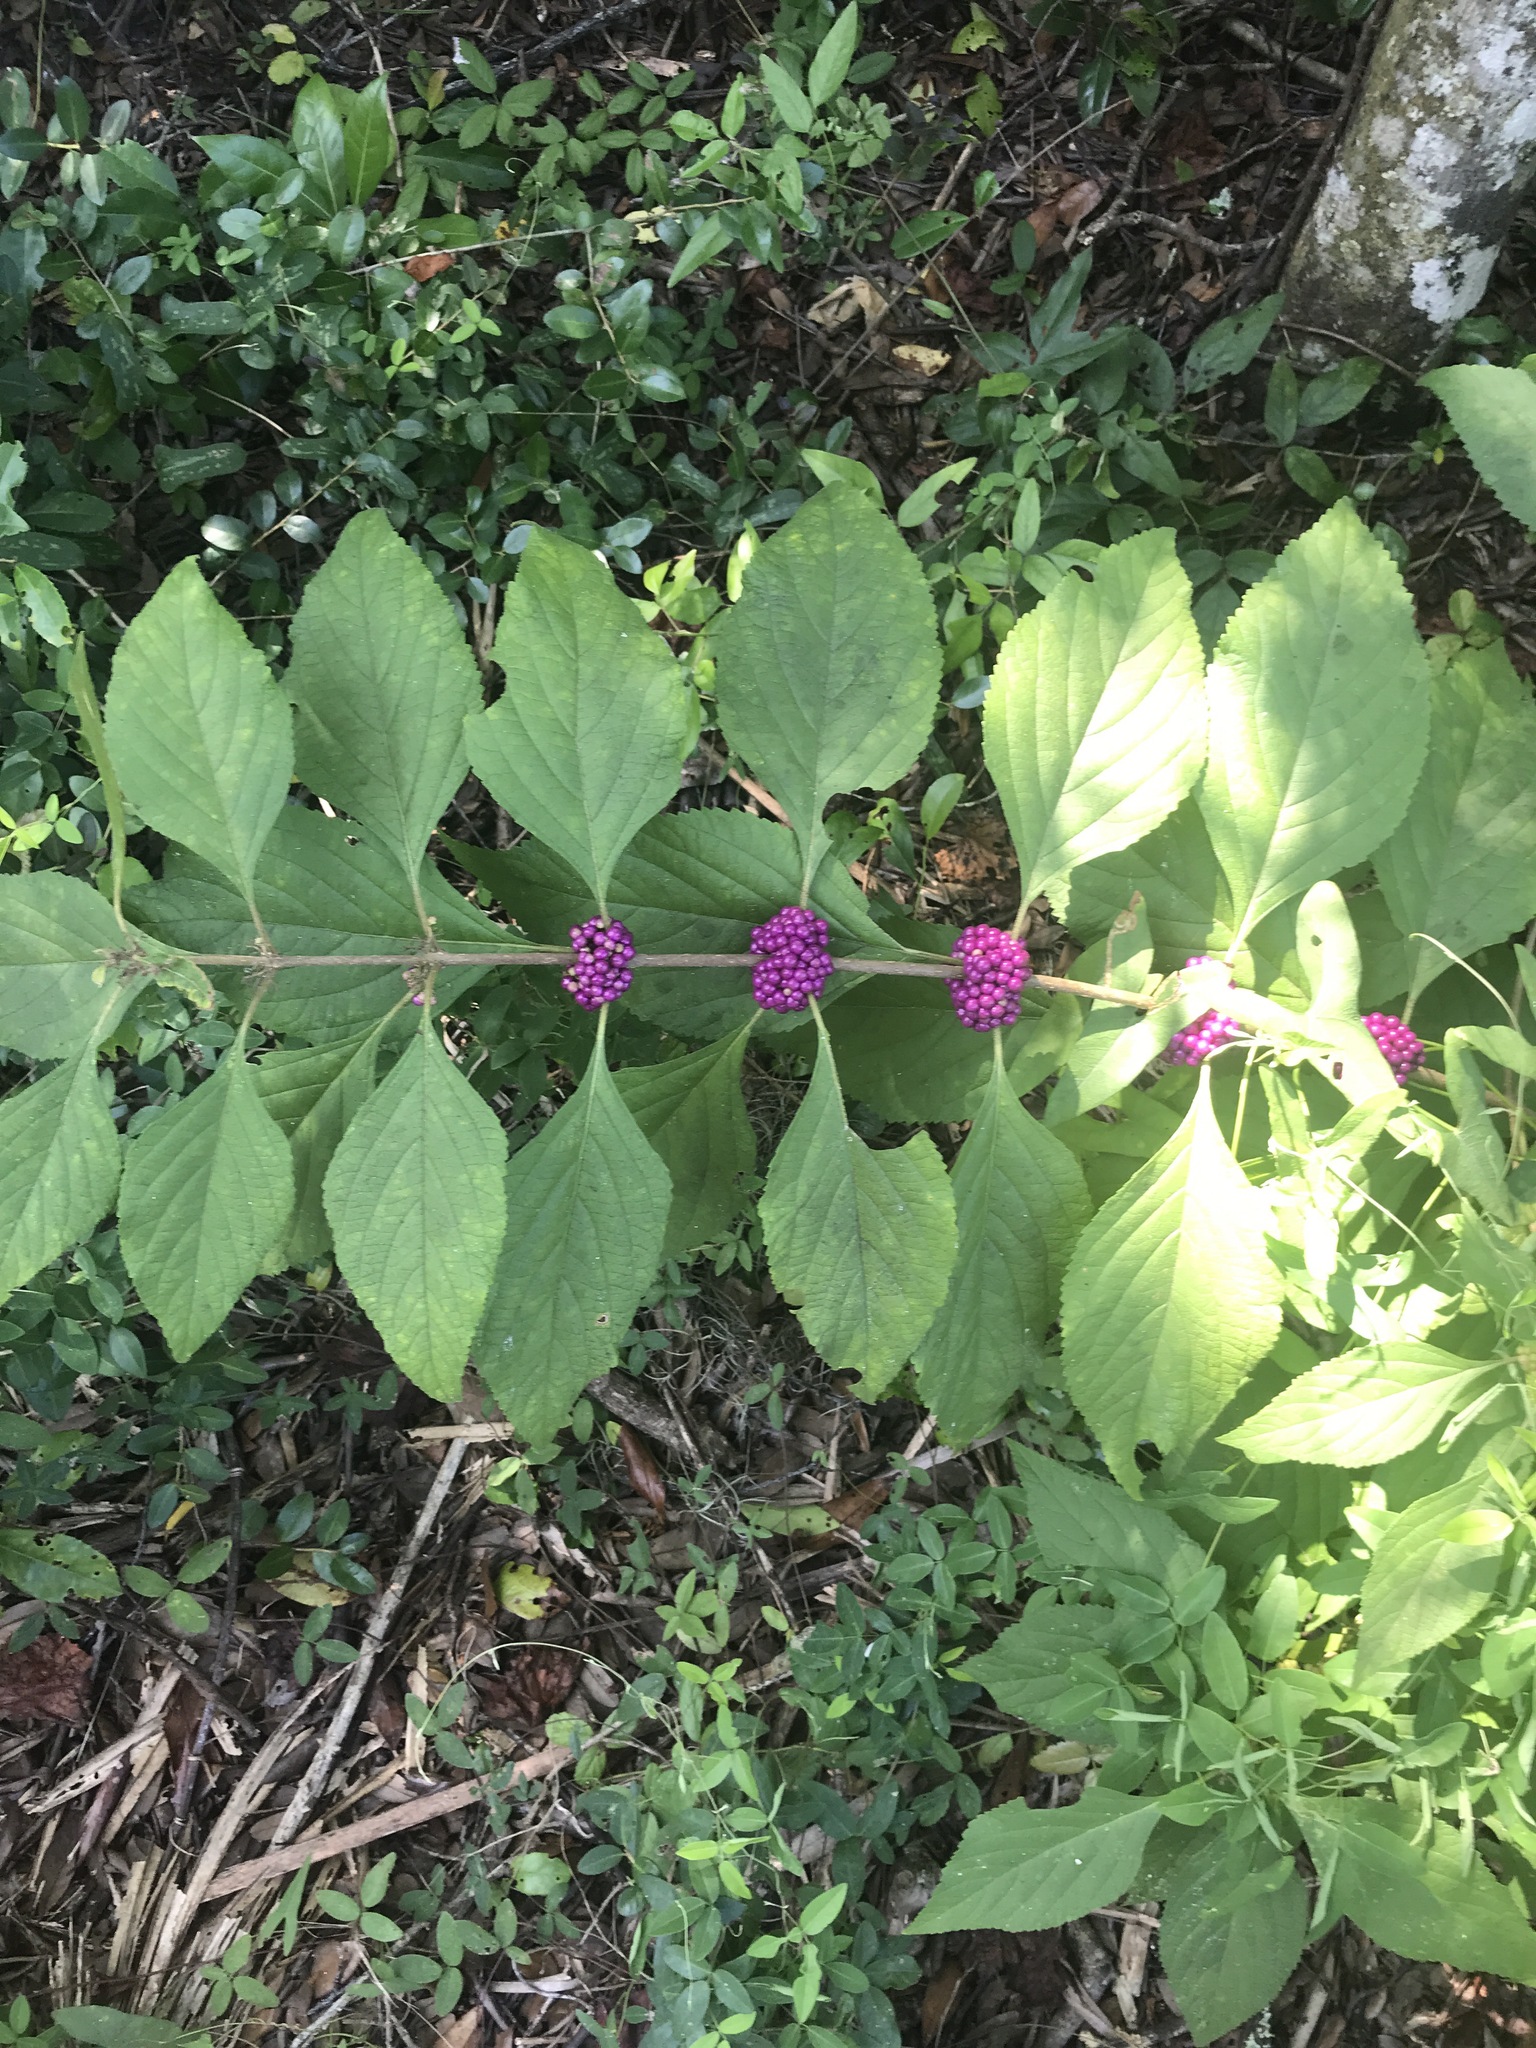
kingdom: Plantae
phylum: Tracheophyta
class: Magnoliopsida
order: Lamiales
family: Lamiaceae
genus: Callicarpa
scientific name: Callicarpa americana
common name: American beautyberry
